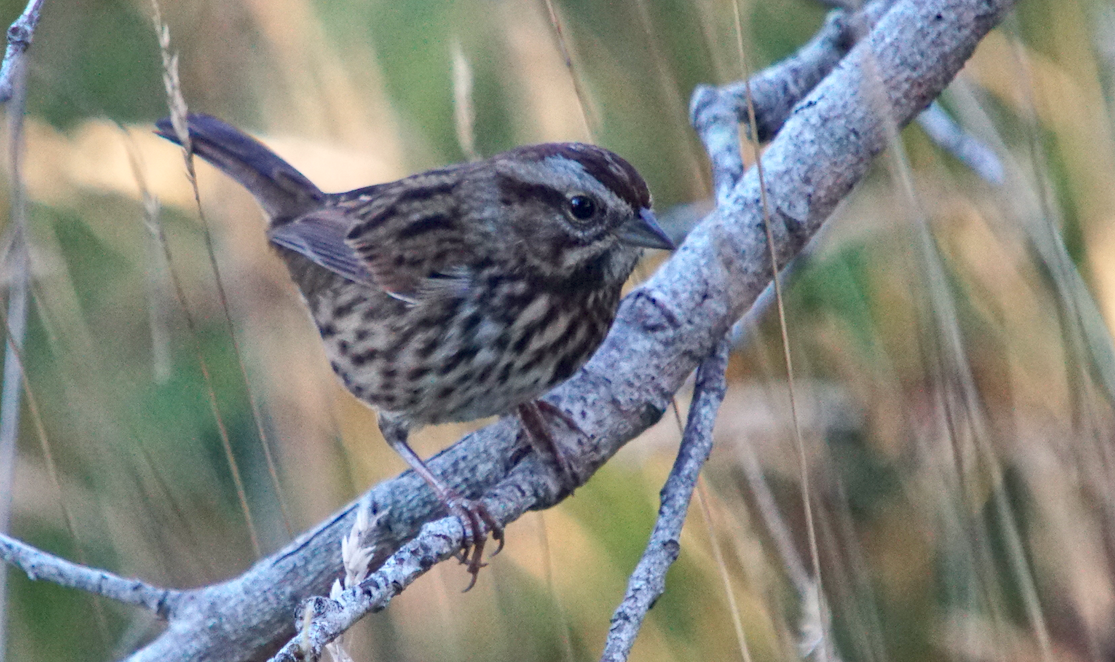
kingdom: Animalia
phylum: Chordata
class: Aves
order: Passeriformes
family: Passerellidae
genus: Melospiza
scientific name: Melospiza melodia
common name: Song sparrow
